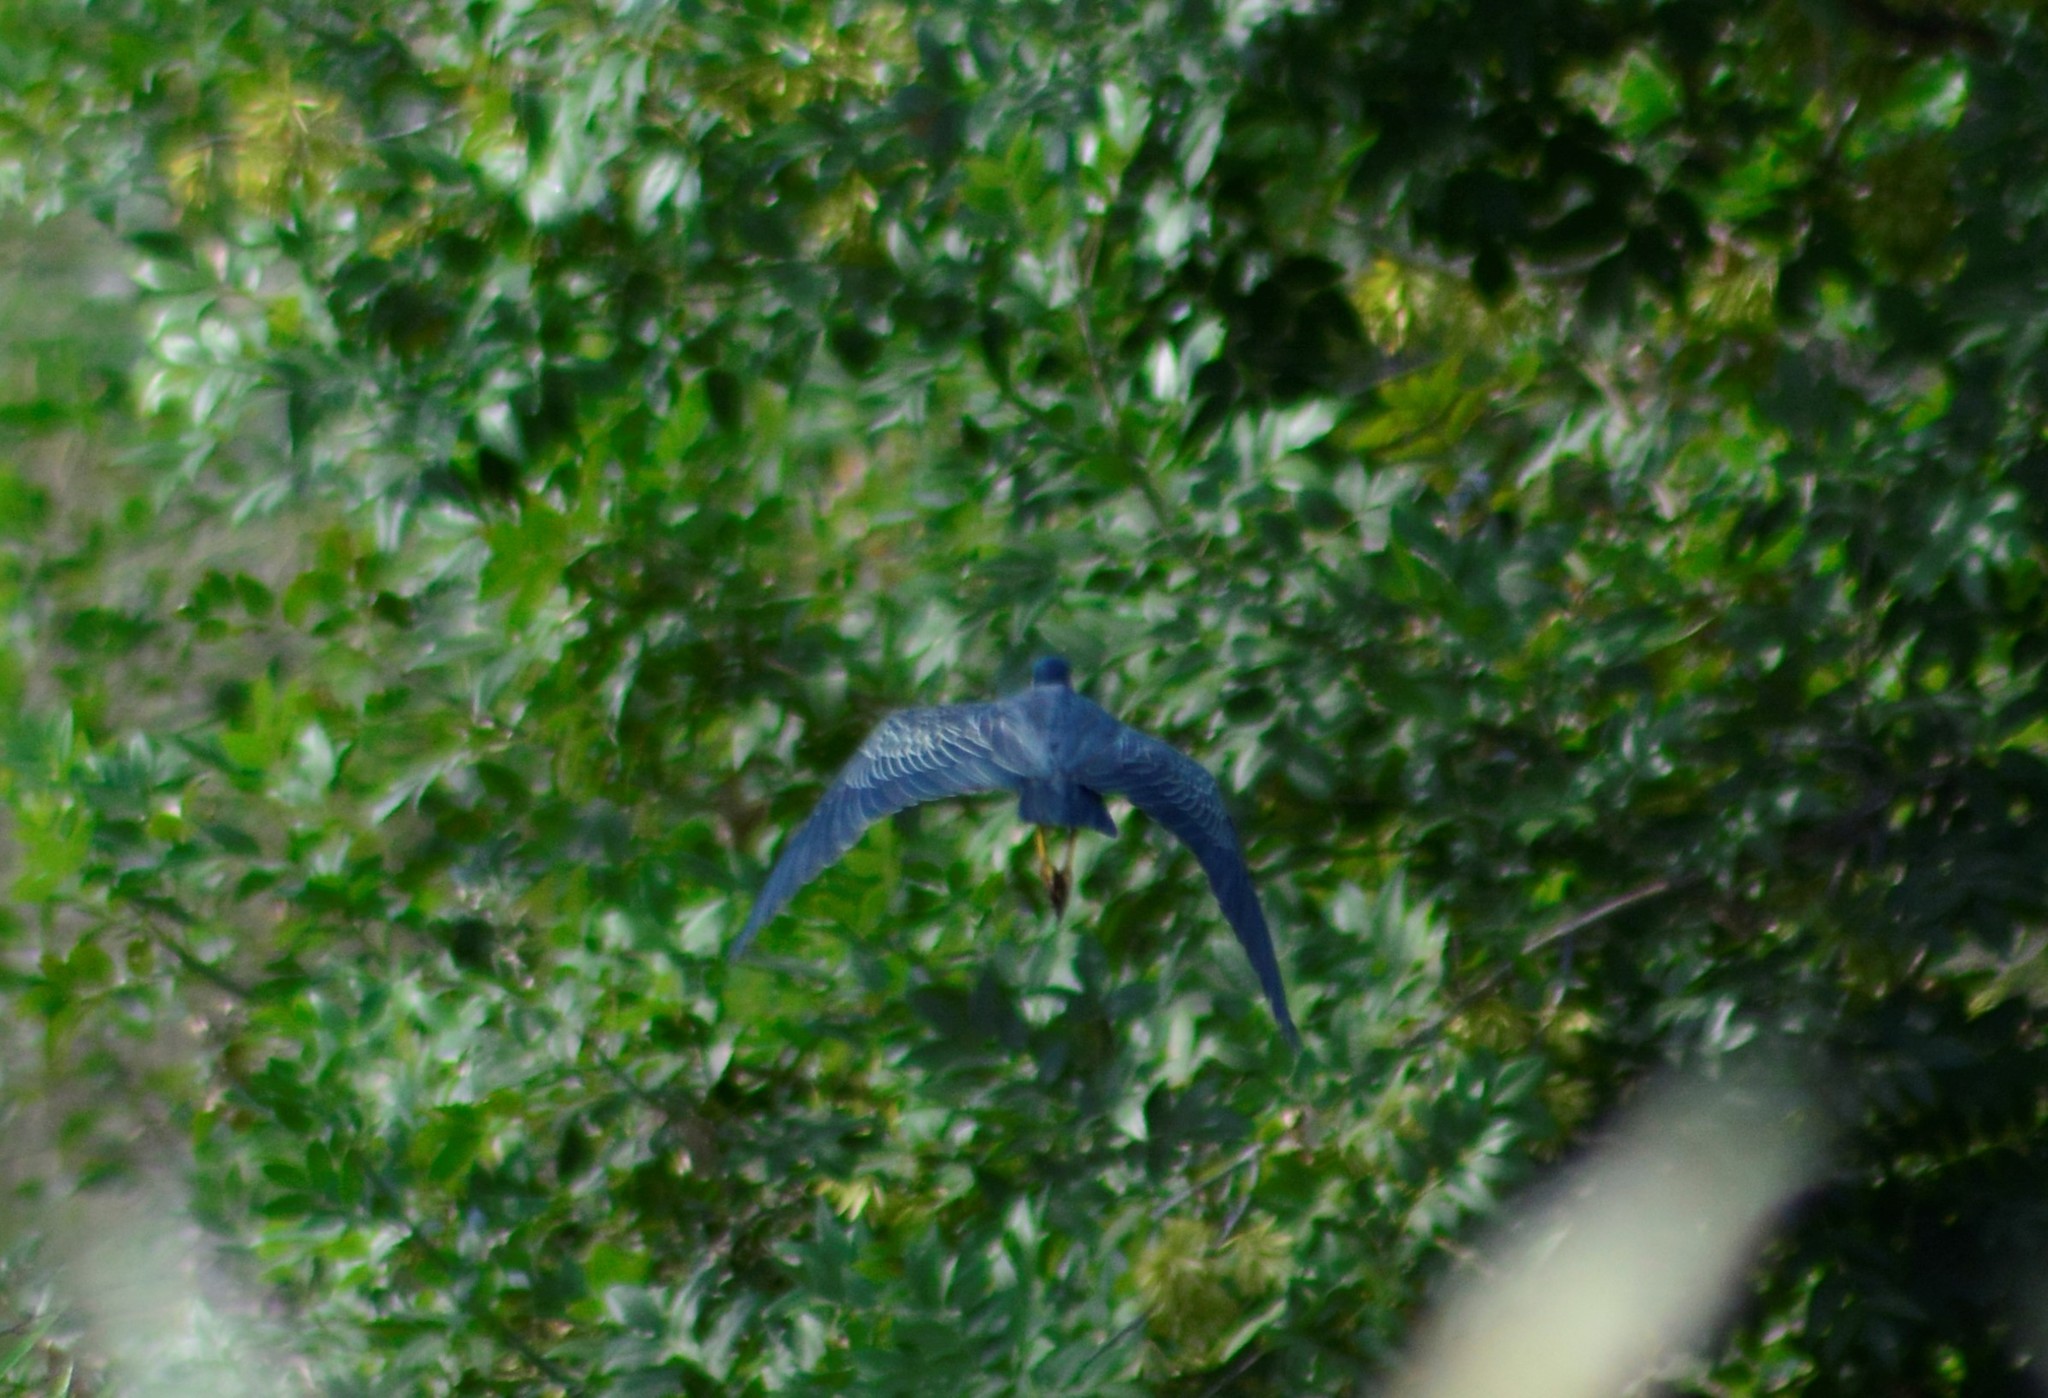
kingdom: Animalia
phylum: Chordata
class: Aves
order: Pelecaniformes
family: Ardeidae
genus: Nycticorax
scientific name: Nycticorax nycticorax
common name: Black-crowned night heron
